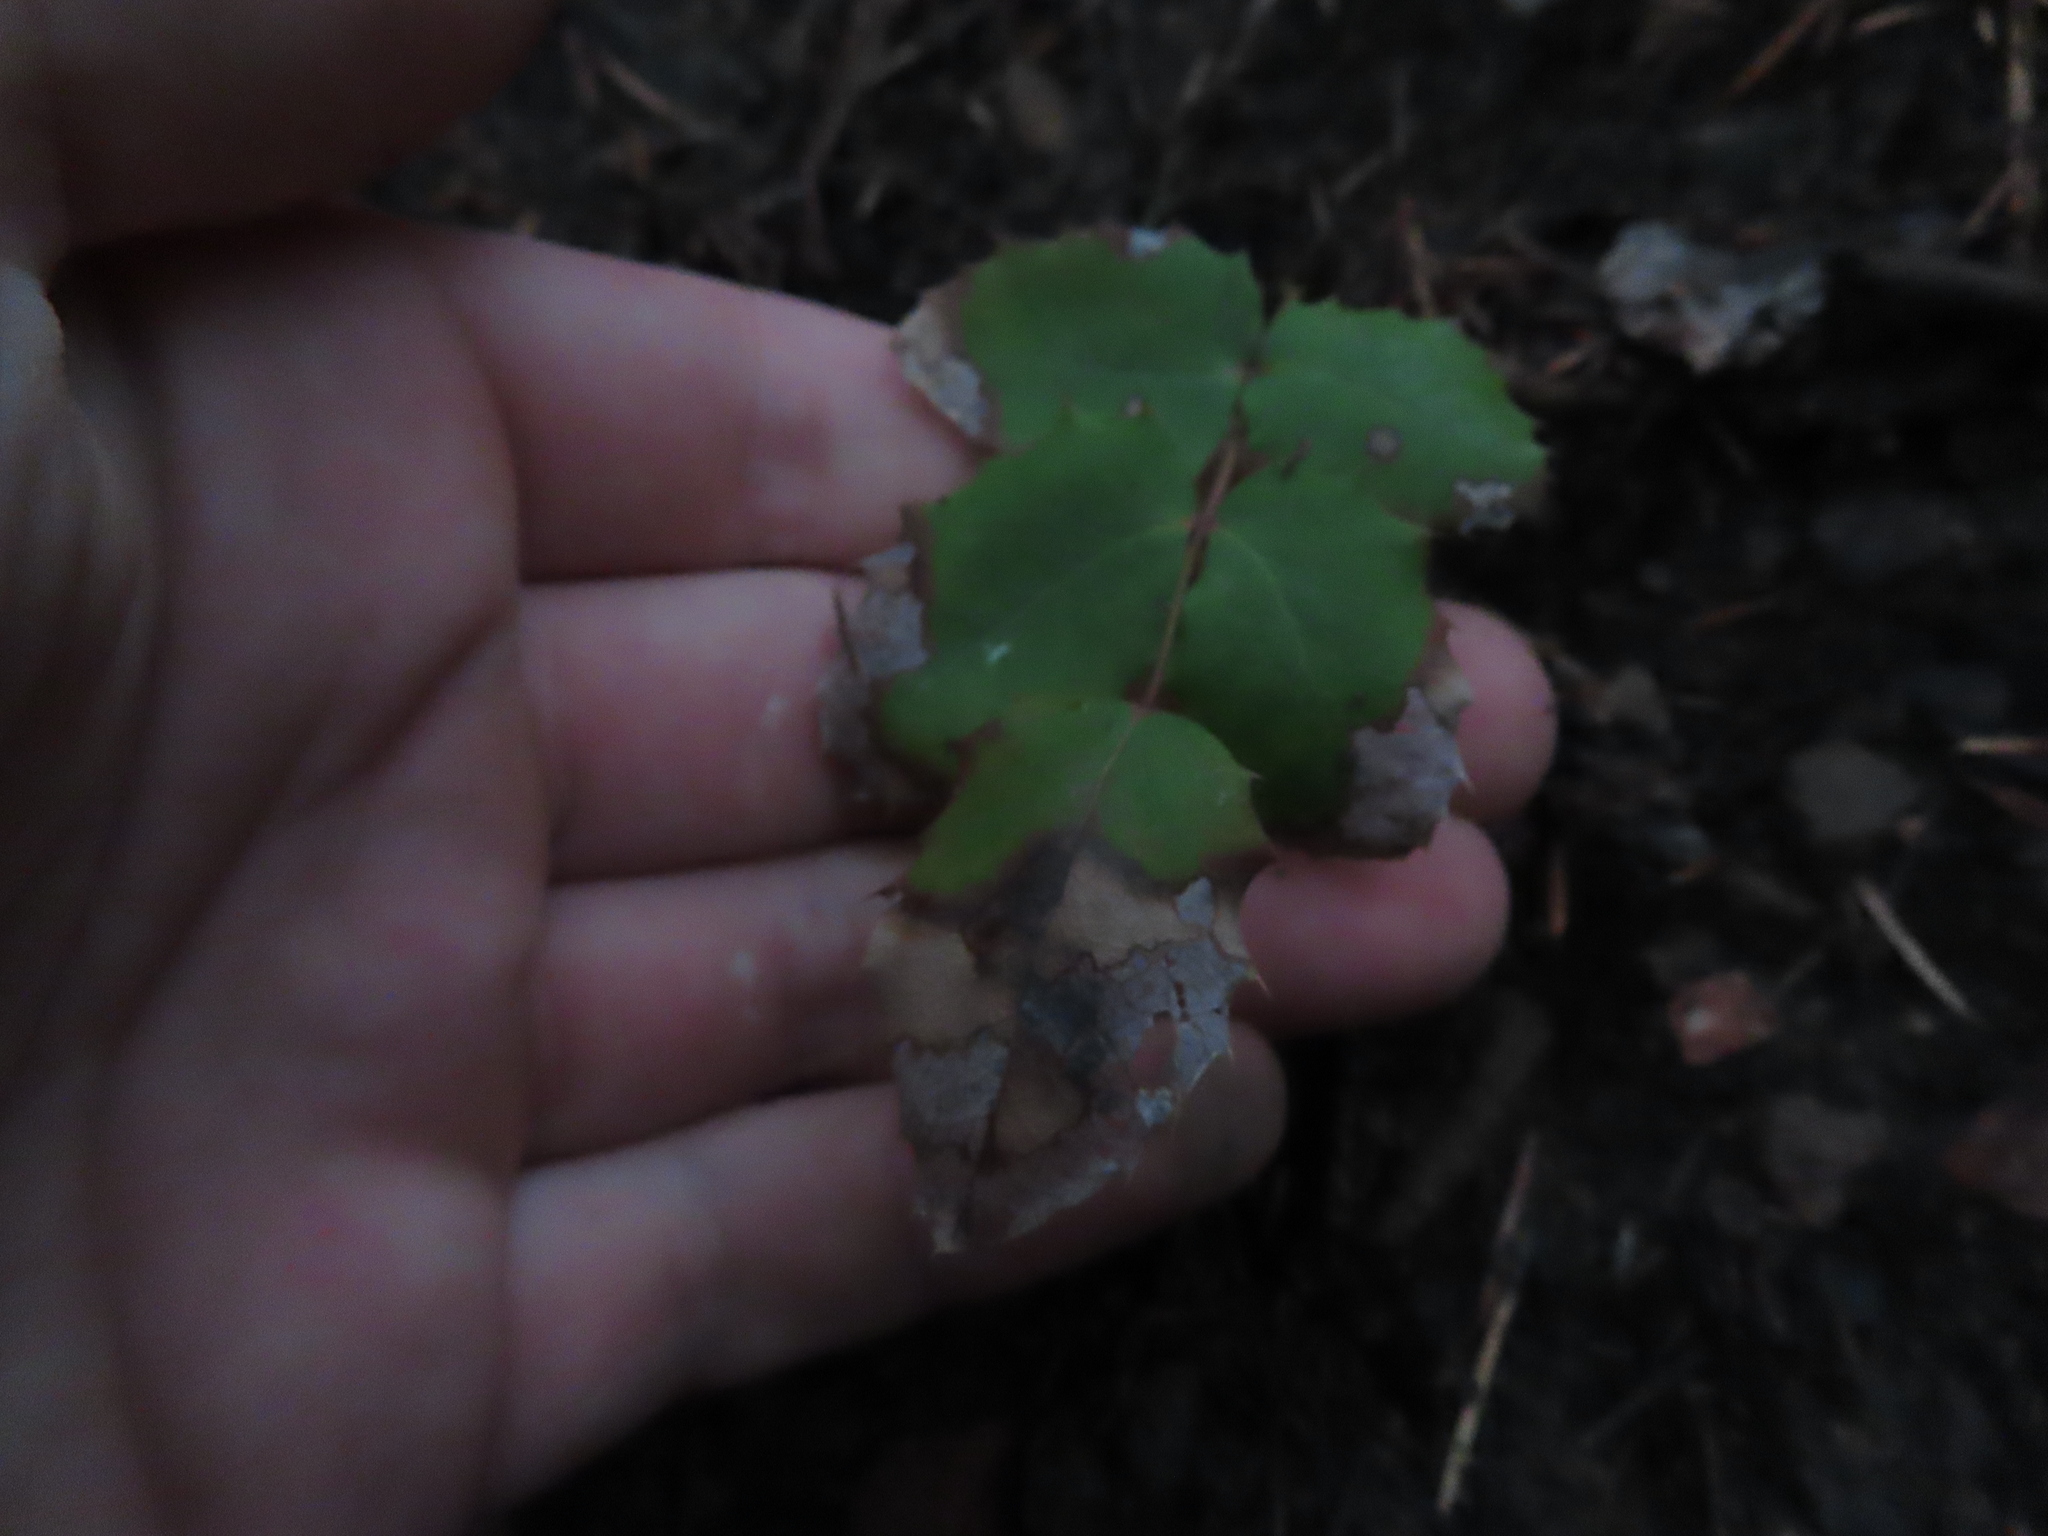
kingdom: Plantae
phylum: Tracheophyta
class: Magnoliopsida
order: Ranunculales
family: Berberidaceae
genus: Mahonia
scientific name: Mahonia repens
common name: Creeping oregon-grape
